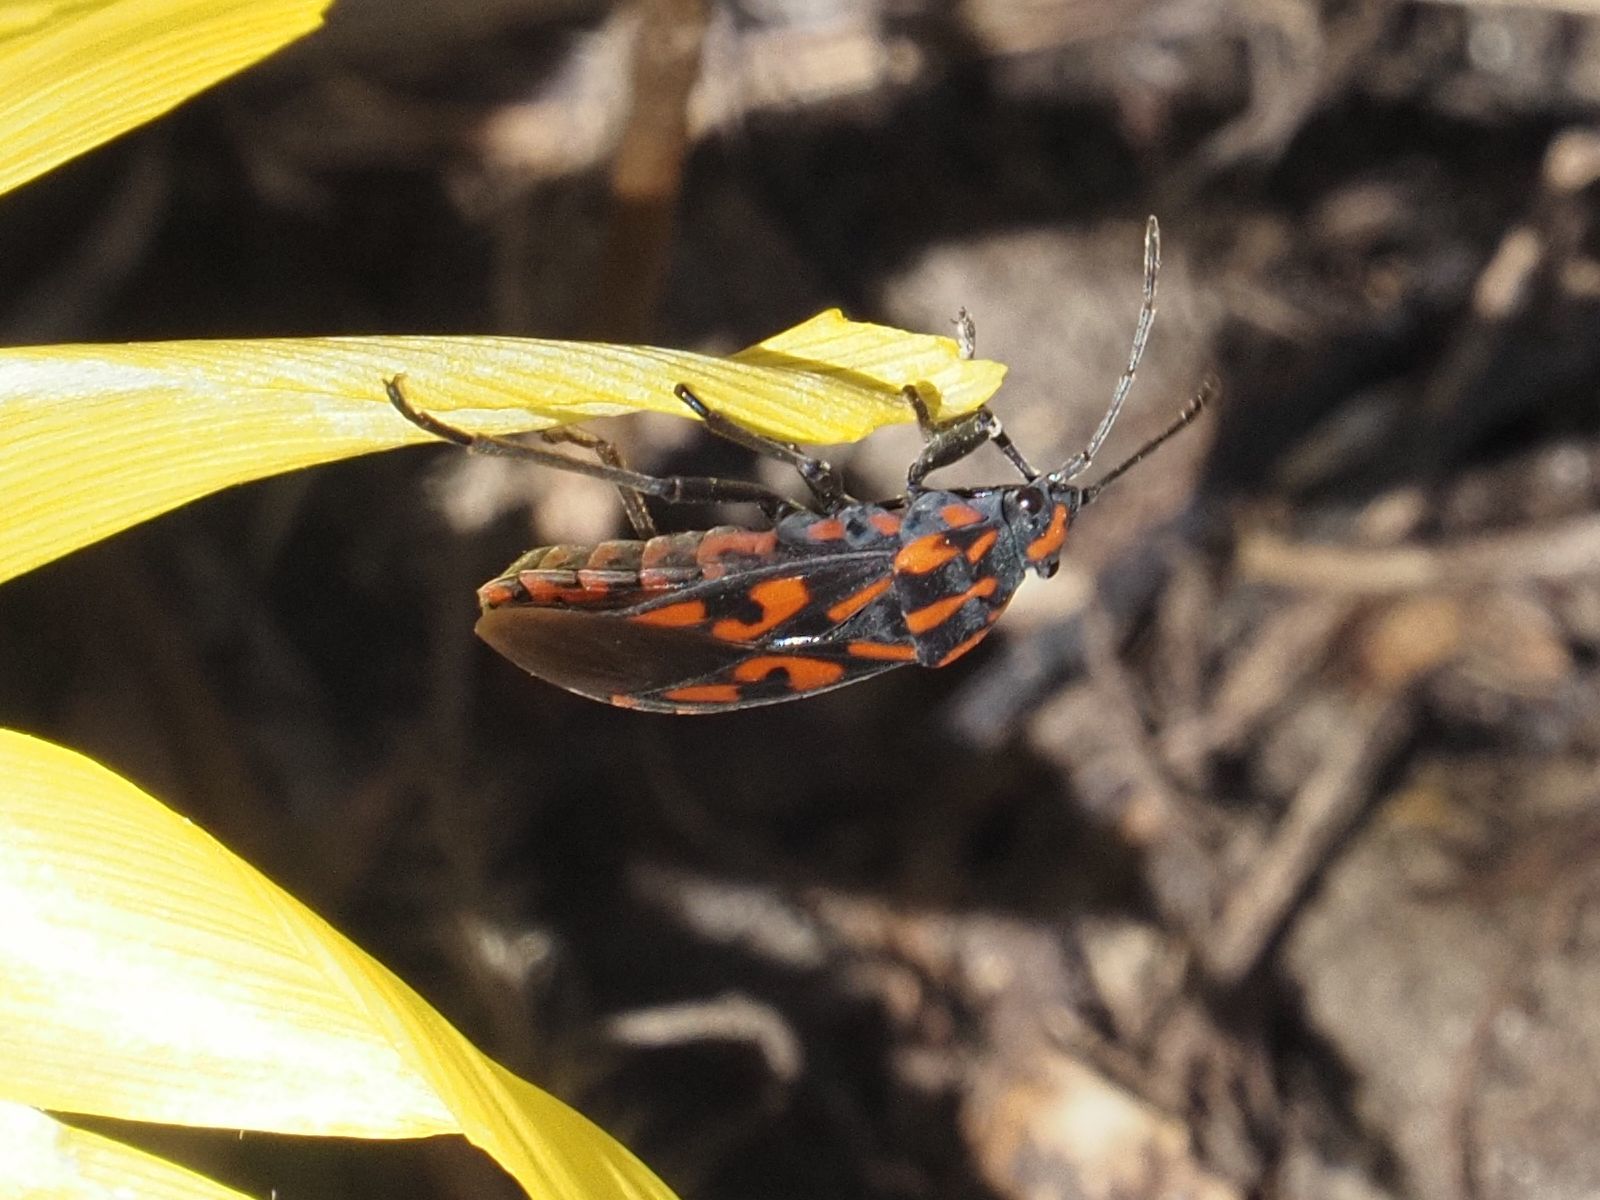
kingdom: Animalia
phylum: Arthropoda
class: Insecta
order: Hemiptera
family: Lygaeidae
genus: Spilostethus
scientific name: Spilostethus saxatilis
